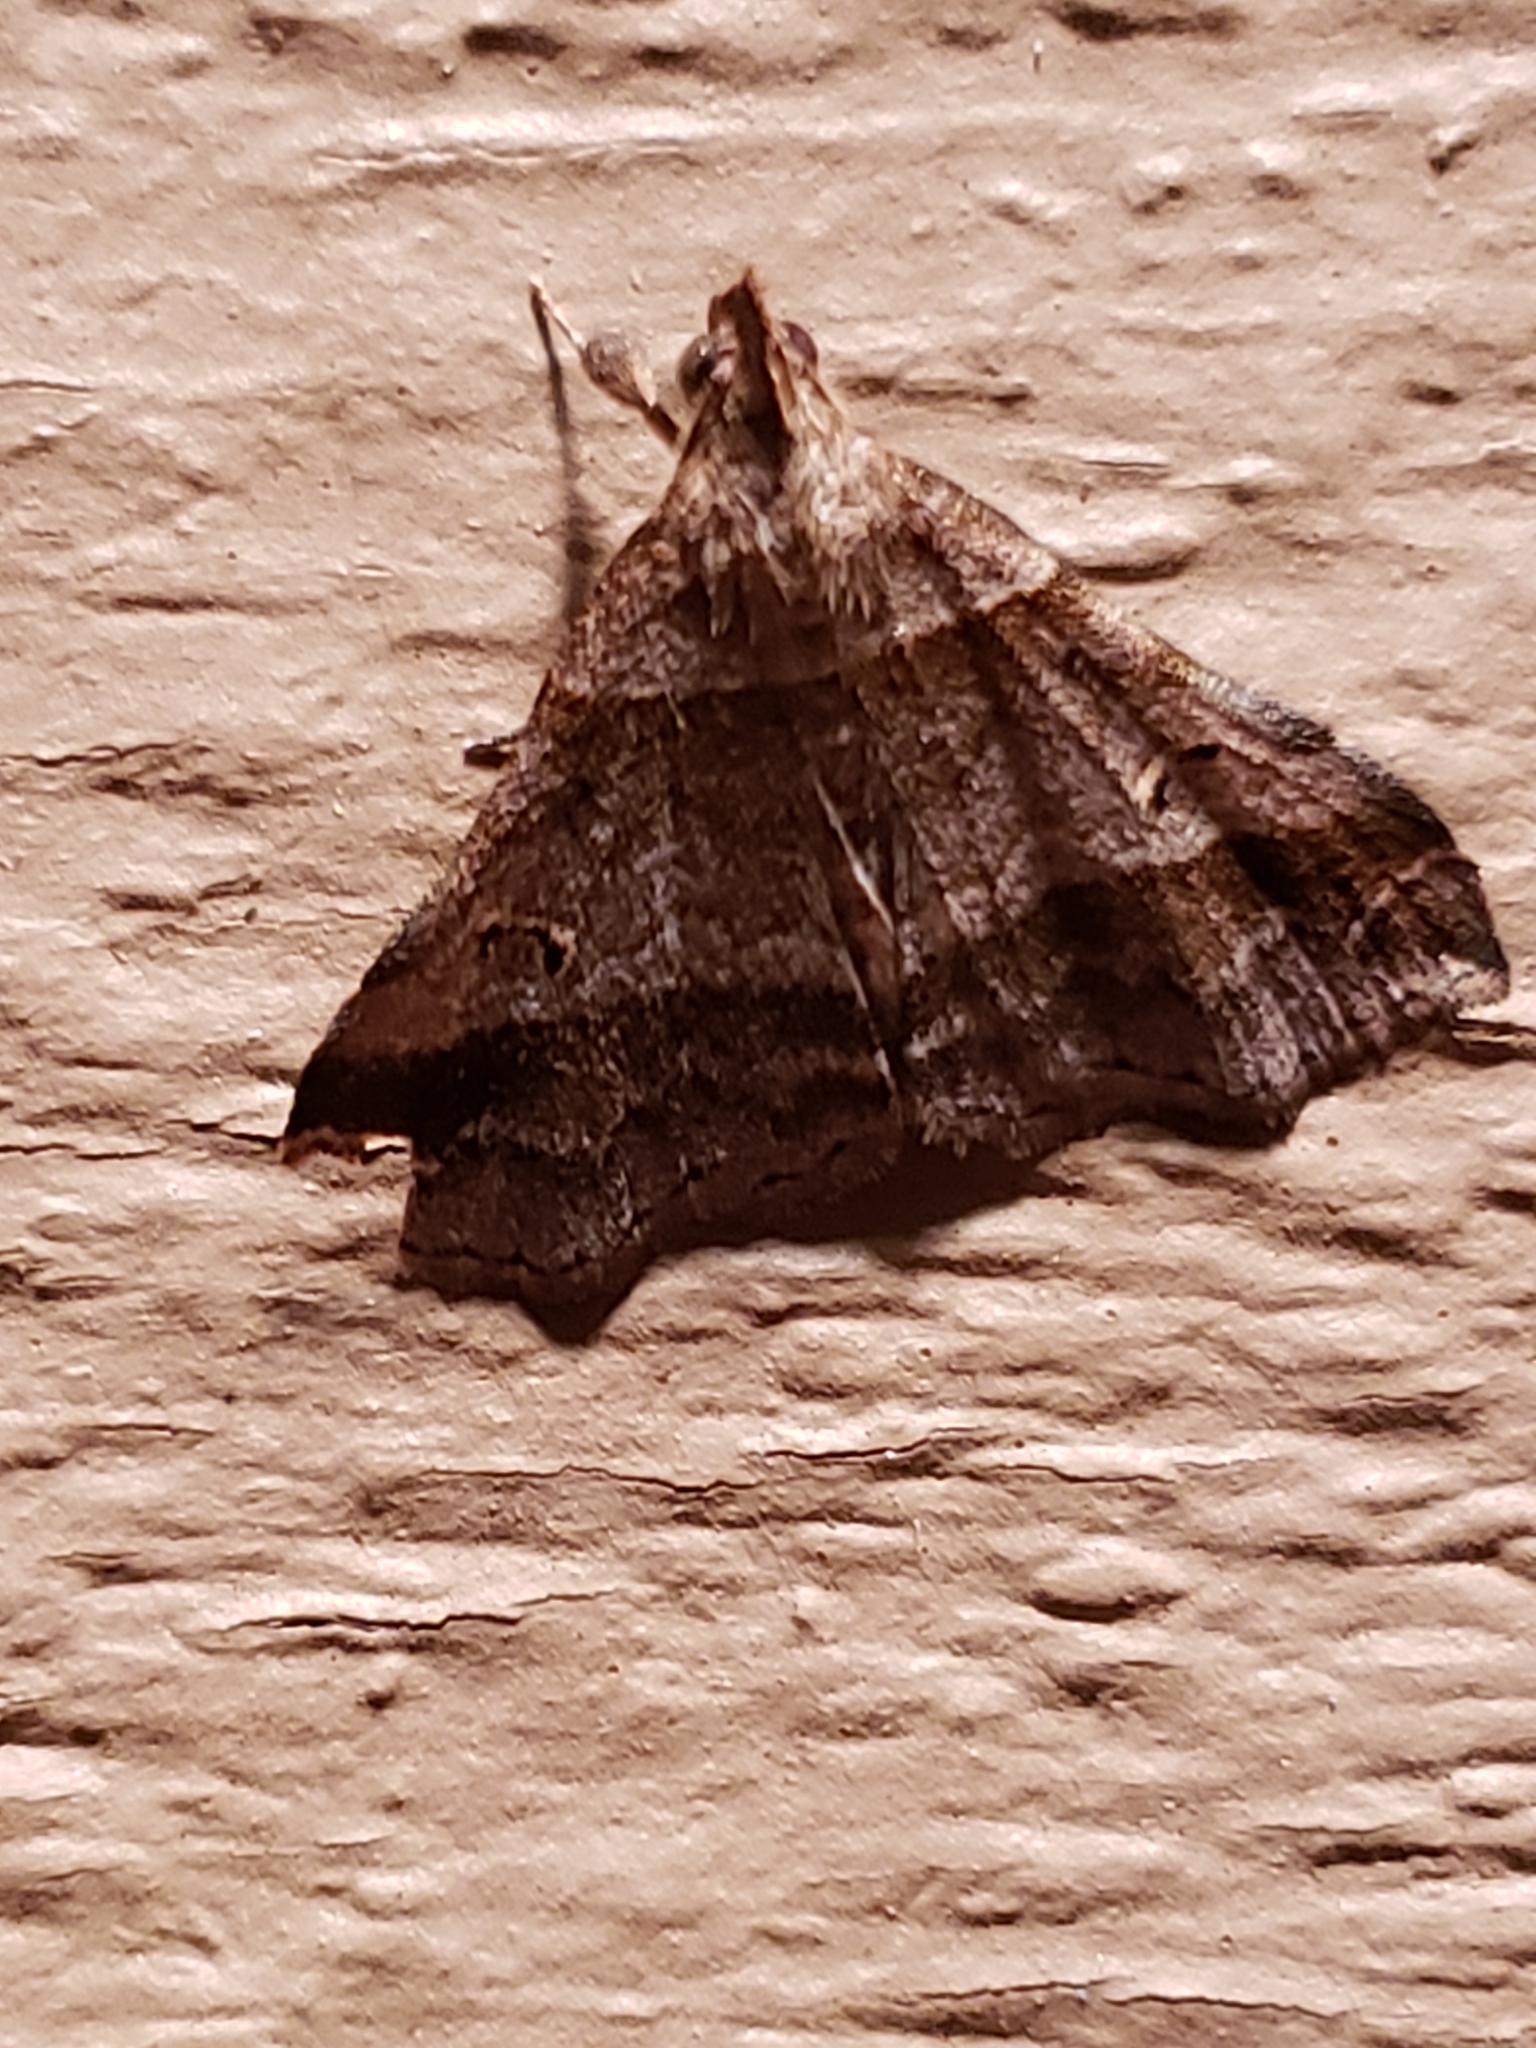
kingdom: Animalia
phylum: Arthropoda
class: Insecta
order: Lepidoptera
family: Erebidae
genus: Phaeolita
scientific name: Phaeolita pyramusalis
